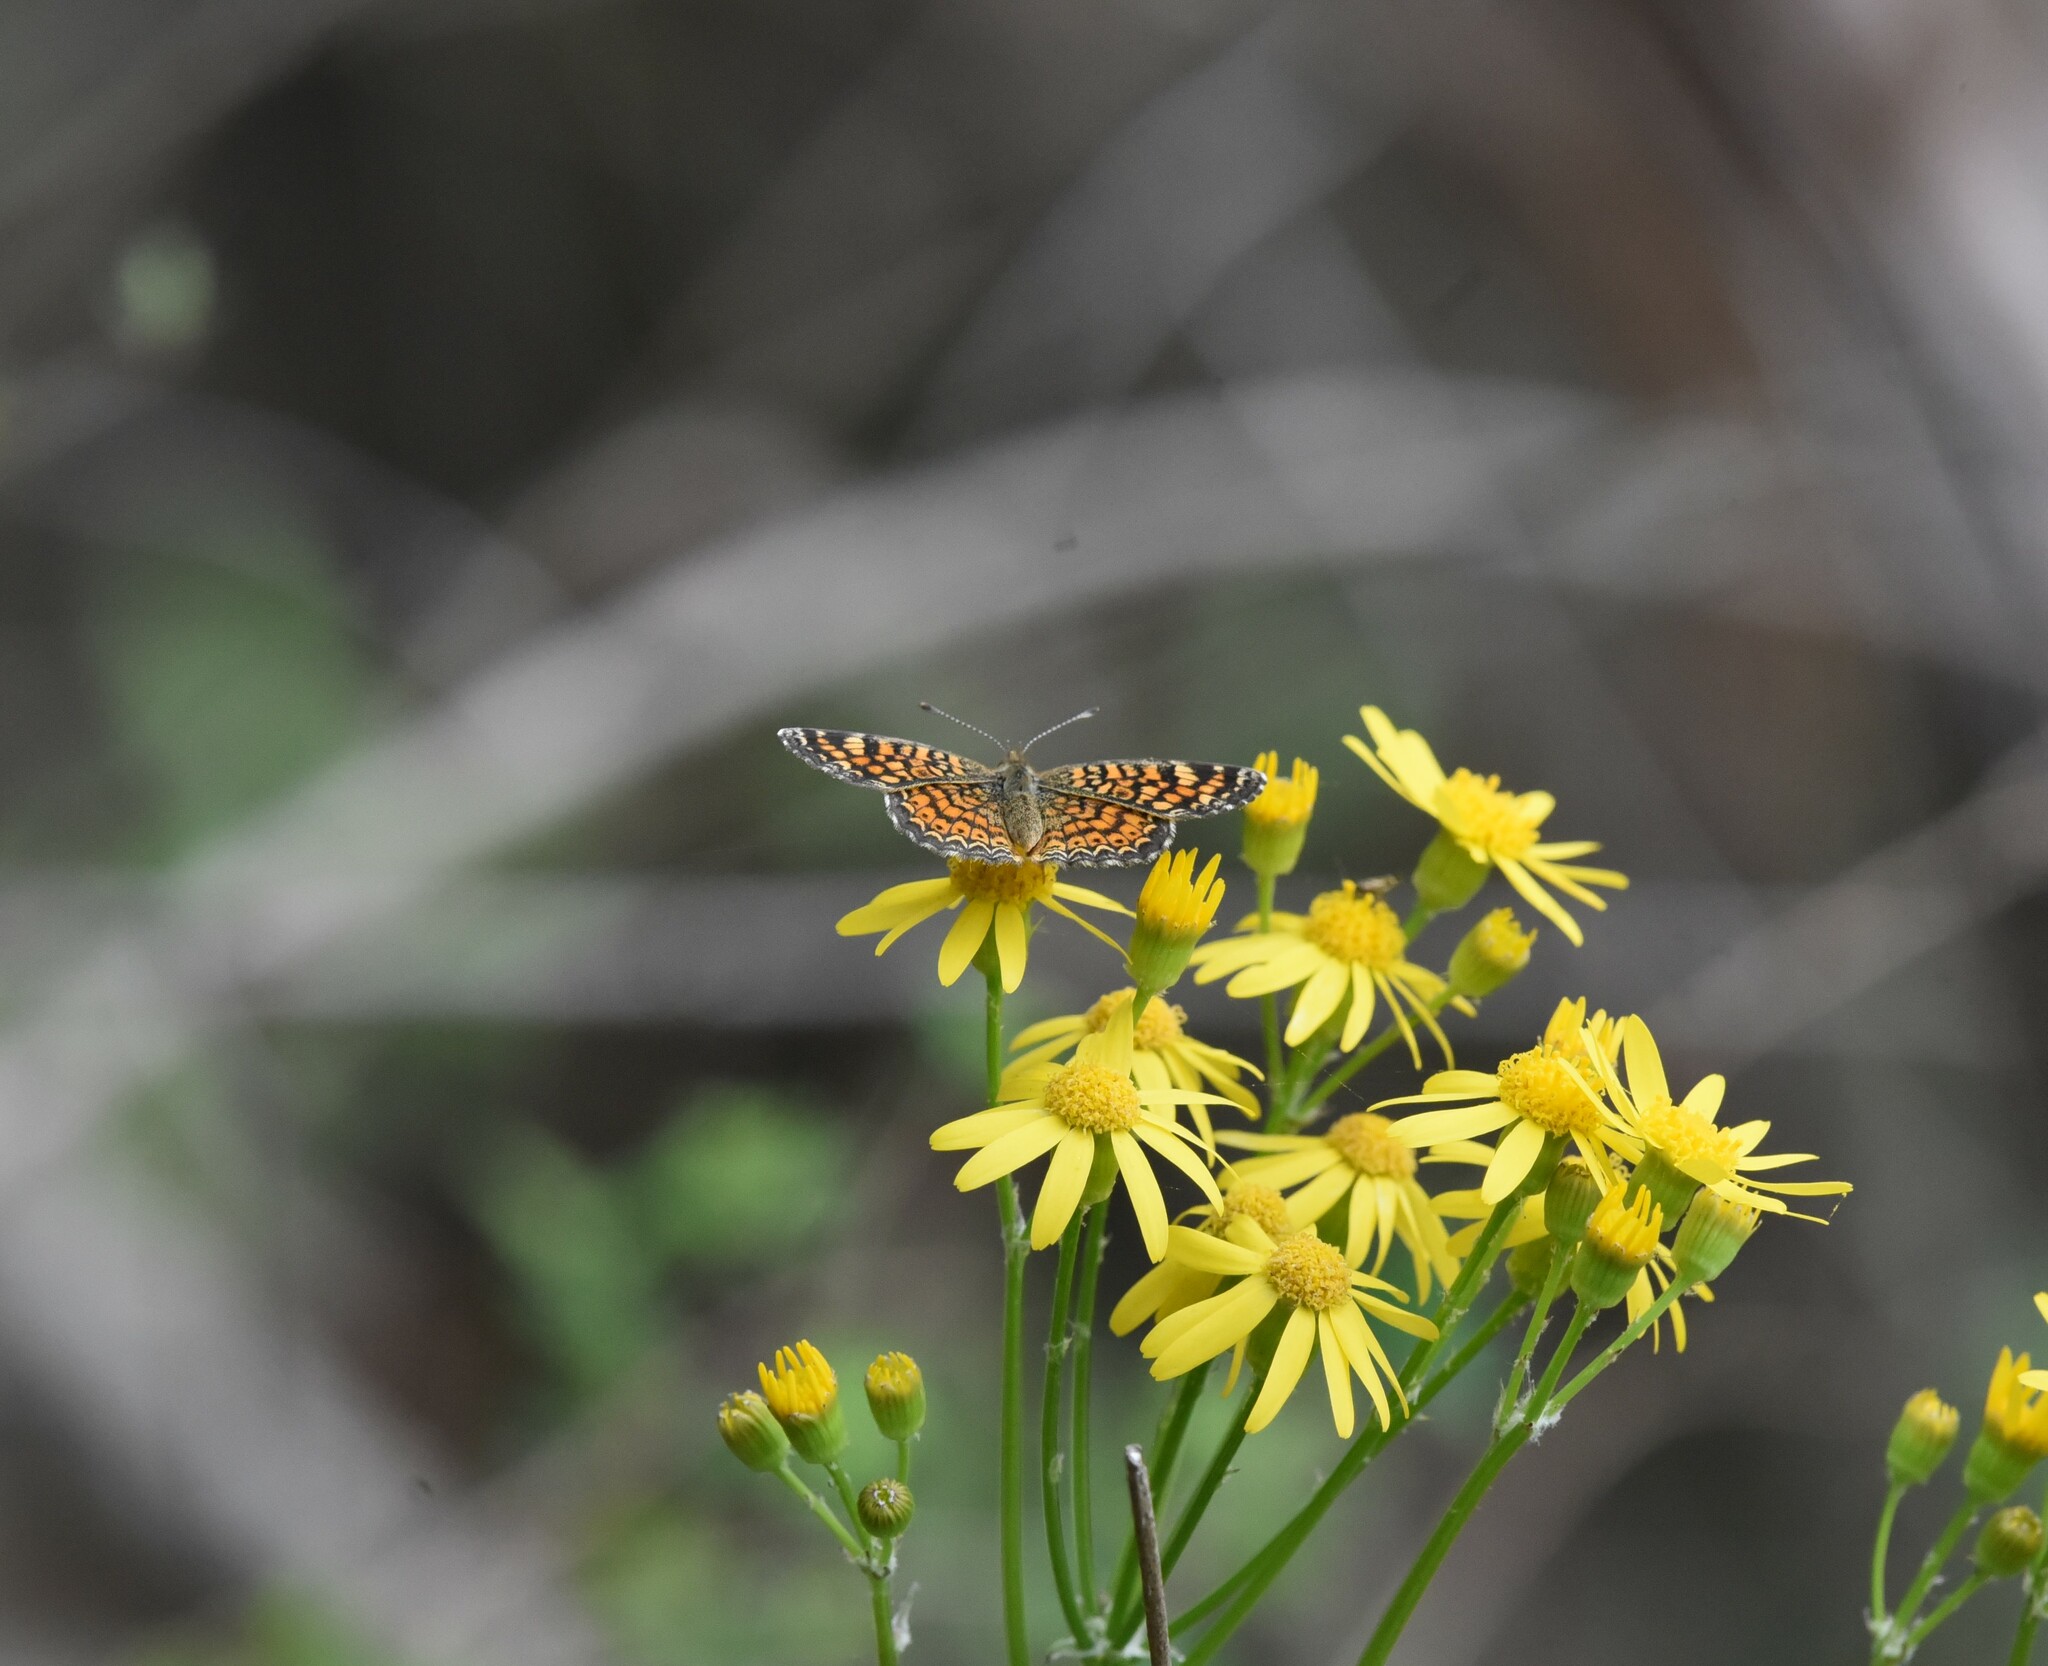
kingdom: Animalia
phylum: Arthropoda
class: Insecta
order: Lepidoptera
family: Nymphalidae
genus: Phyciodes
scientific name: Phyciodes vesta
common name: Vesta crescent
